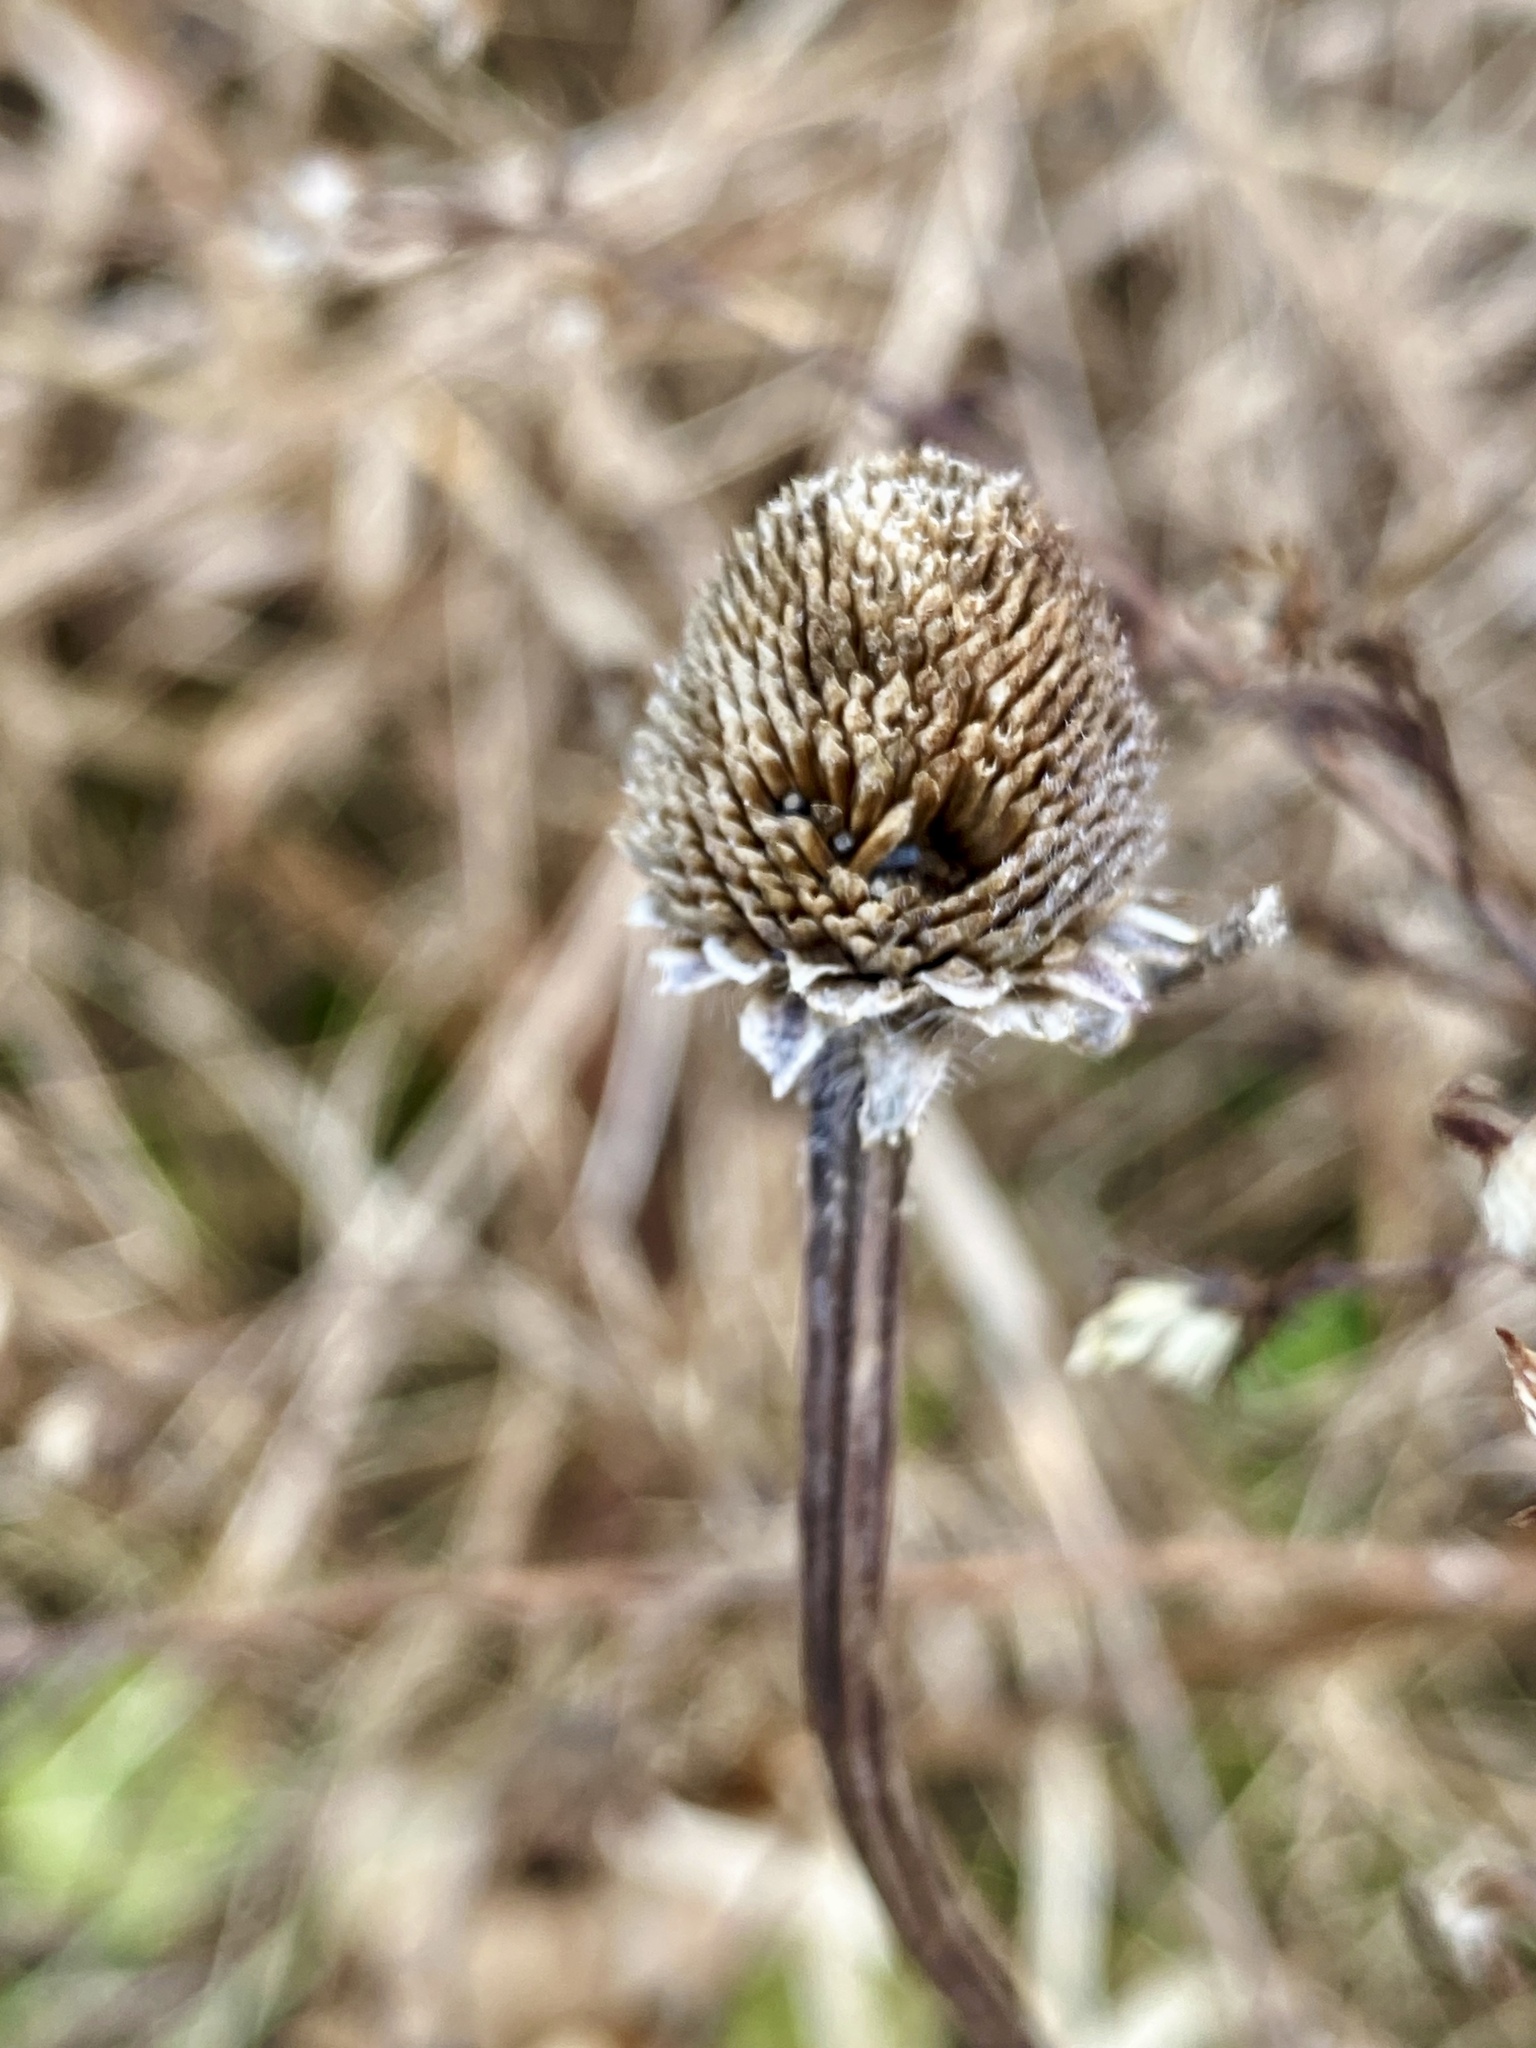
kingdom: Plantae
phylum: Tracheophyta
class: Magnoliopsida
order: Asterales
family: Asteraceae
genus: Rudbeckia
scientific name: Rudbeckia hirta
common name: Black-eyed-susan
